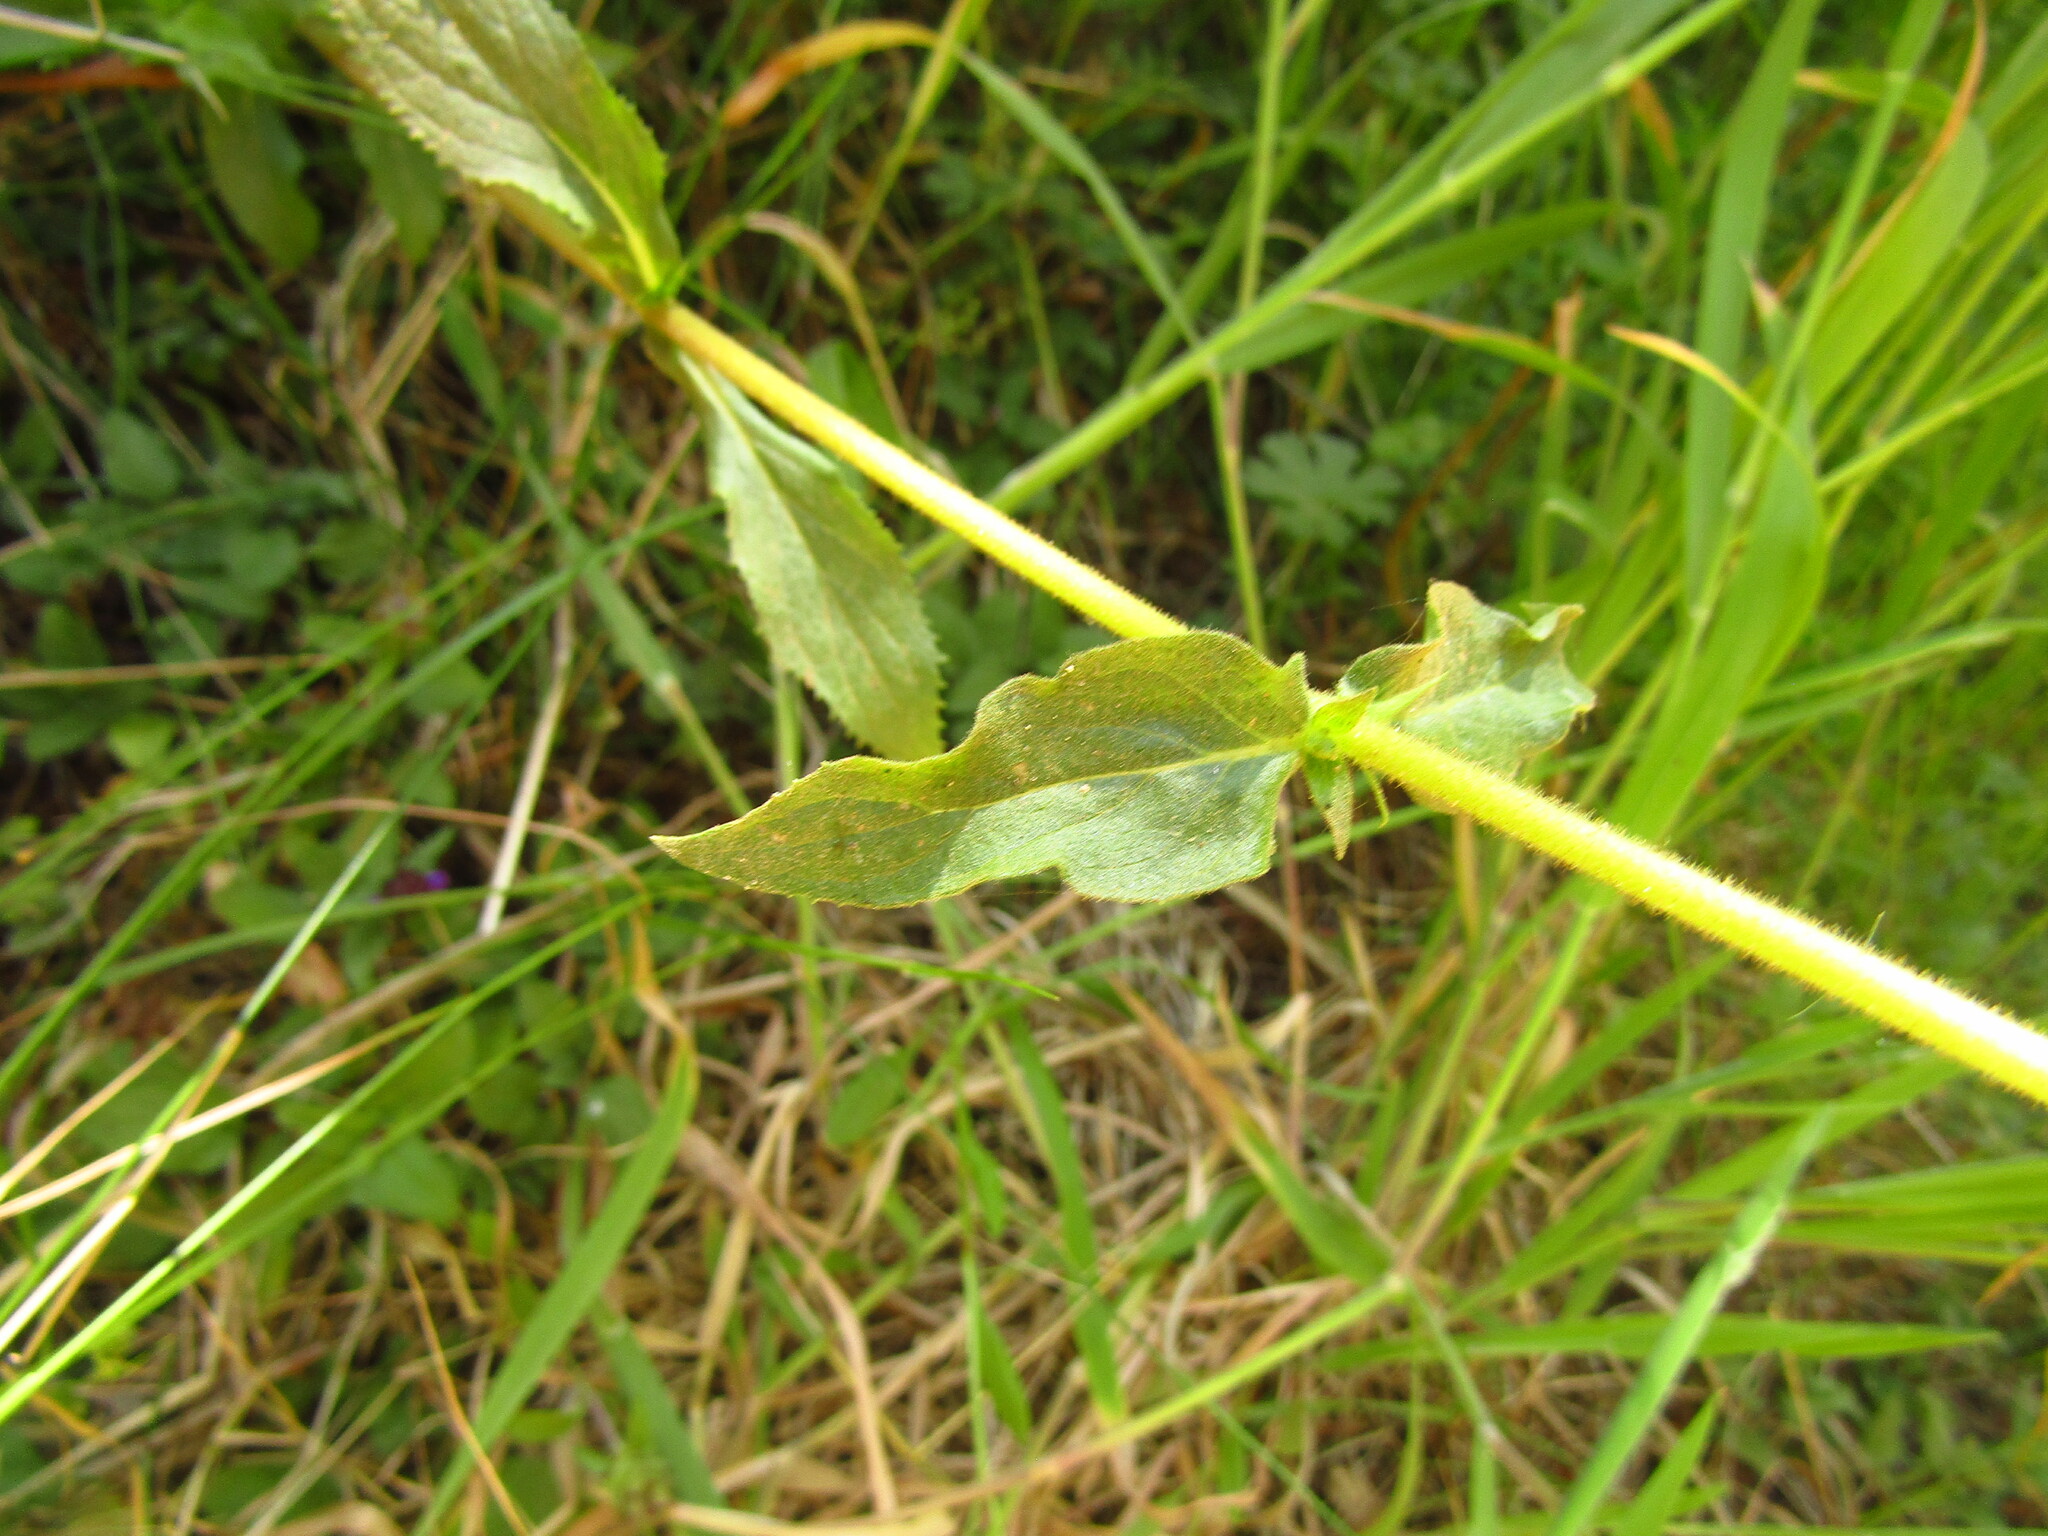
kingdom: Plantae
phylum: Tracheophyta
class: Magnoliopsida
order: Lamiales
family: Calceolariaceae
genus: Calceolaria
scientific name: Calceolaria dentata
